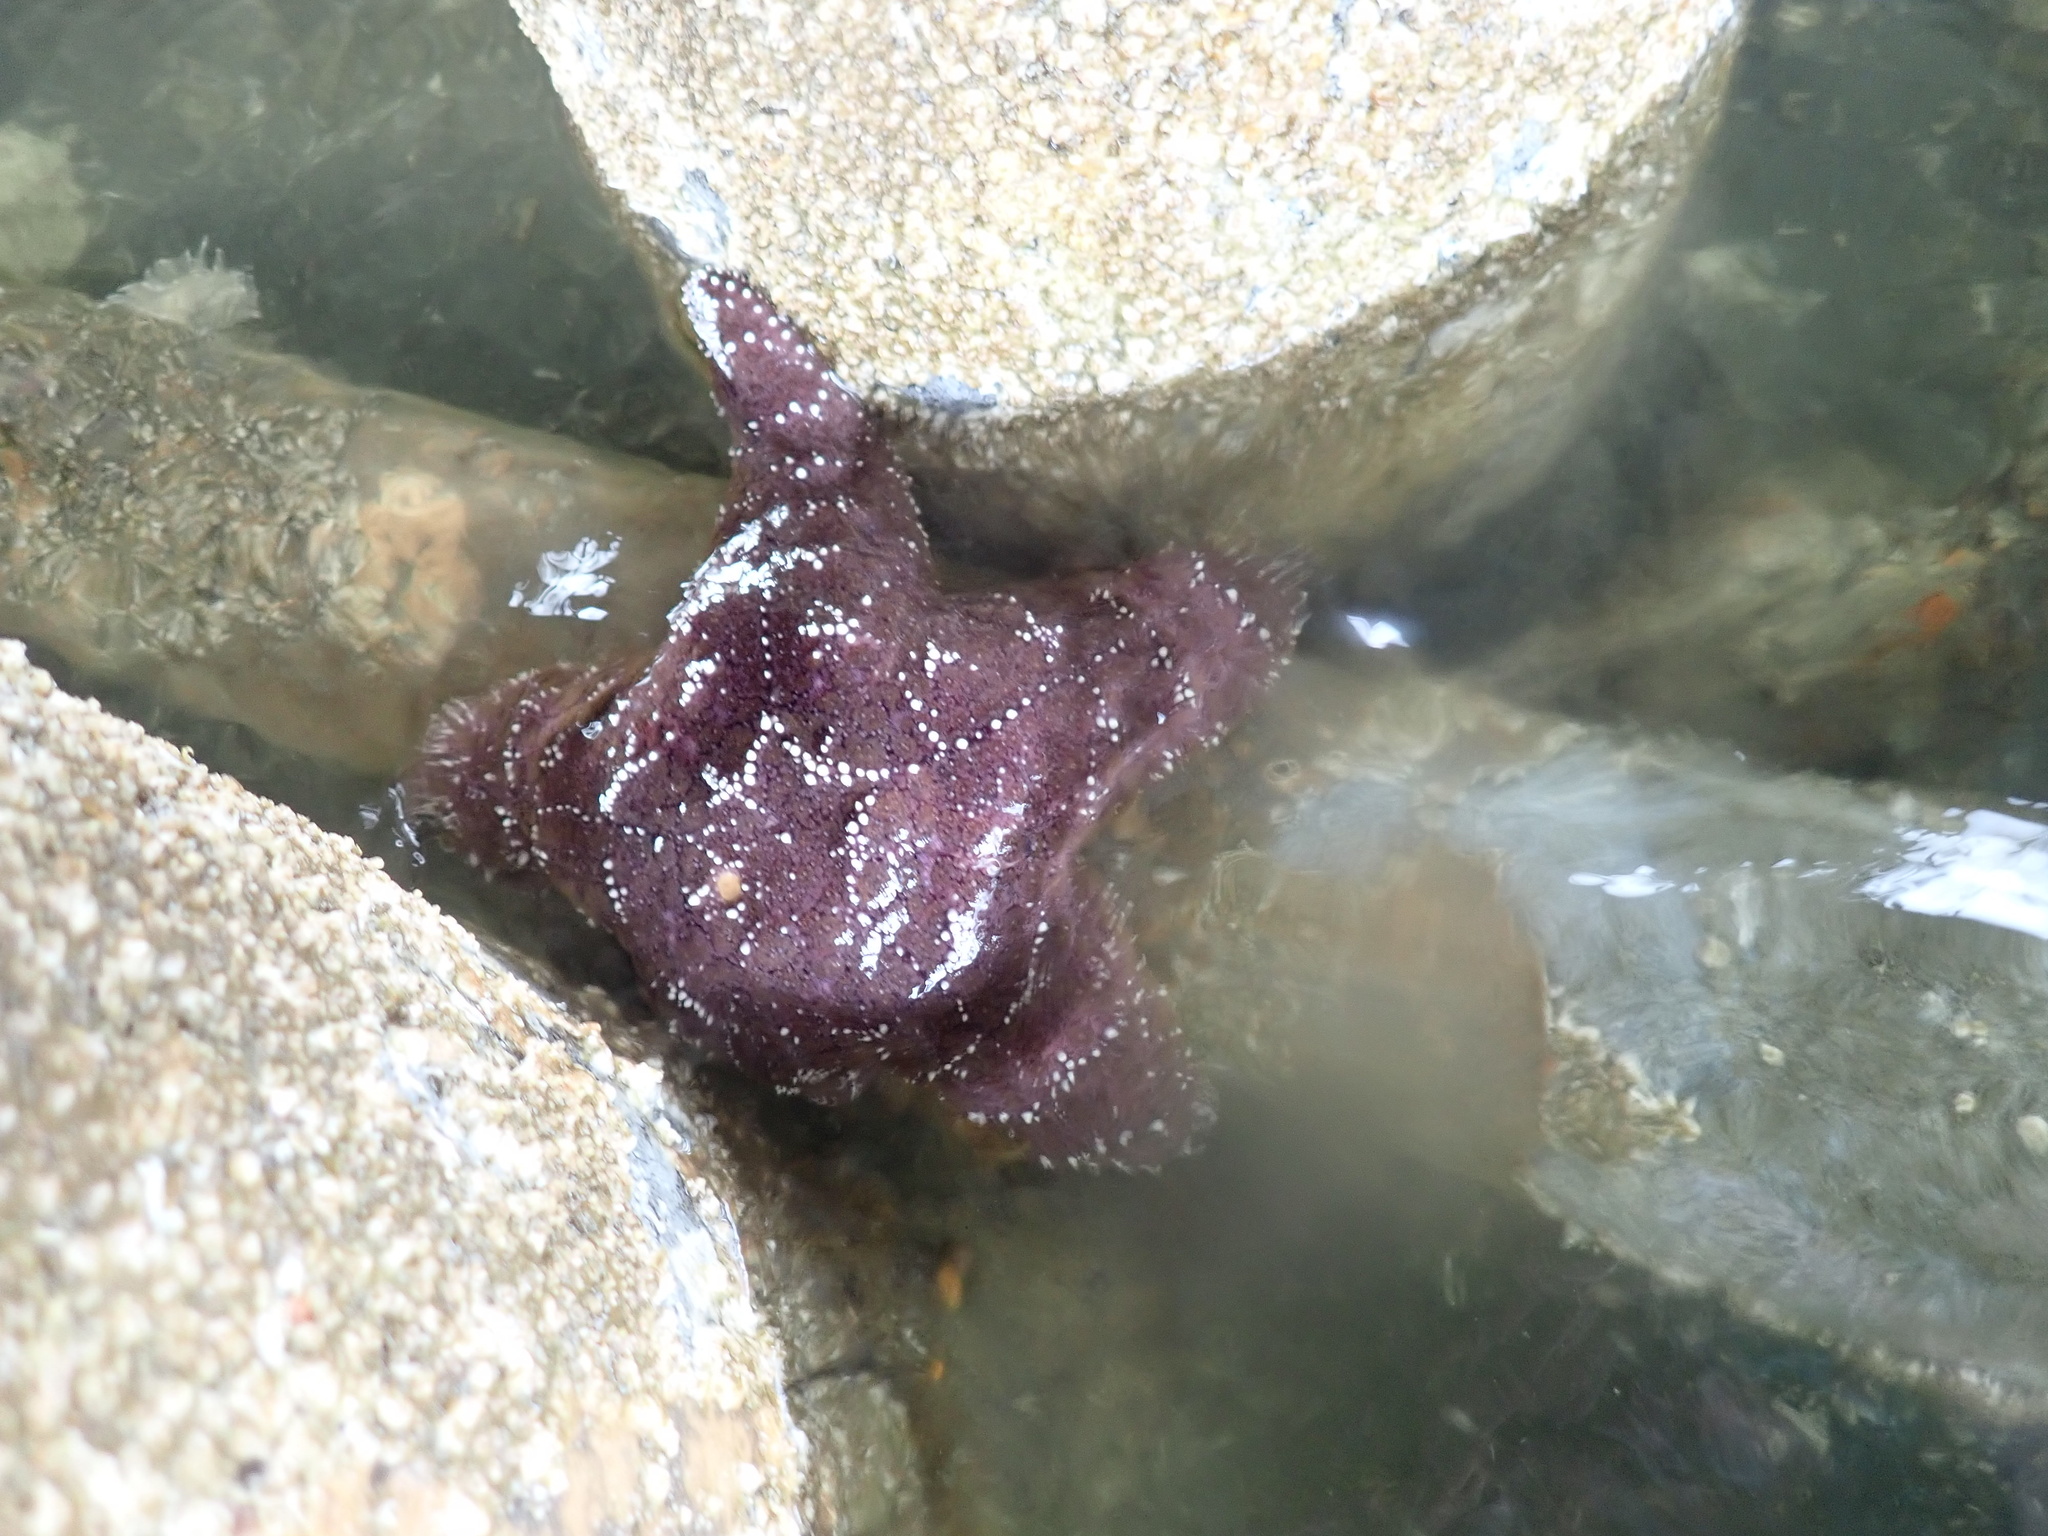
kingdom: Animalia
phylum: Echinodermata
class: Asteroidea
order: Forcipulatida
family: Asteriidae
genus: Pisaster
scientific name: Pisaster ochraceus
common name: Ochre stars
